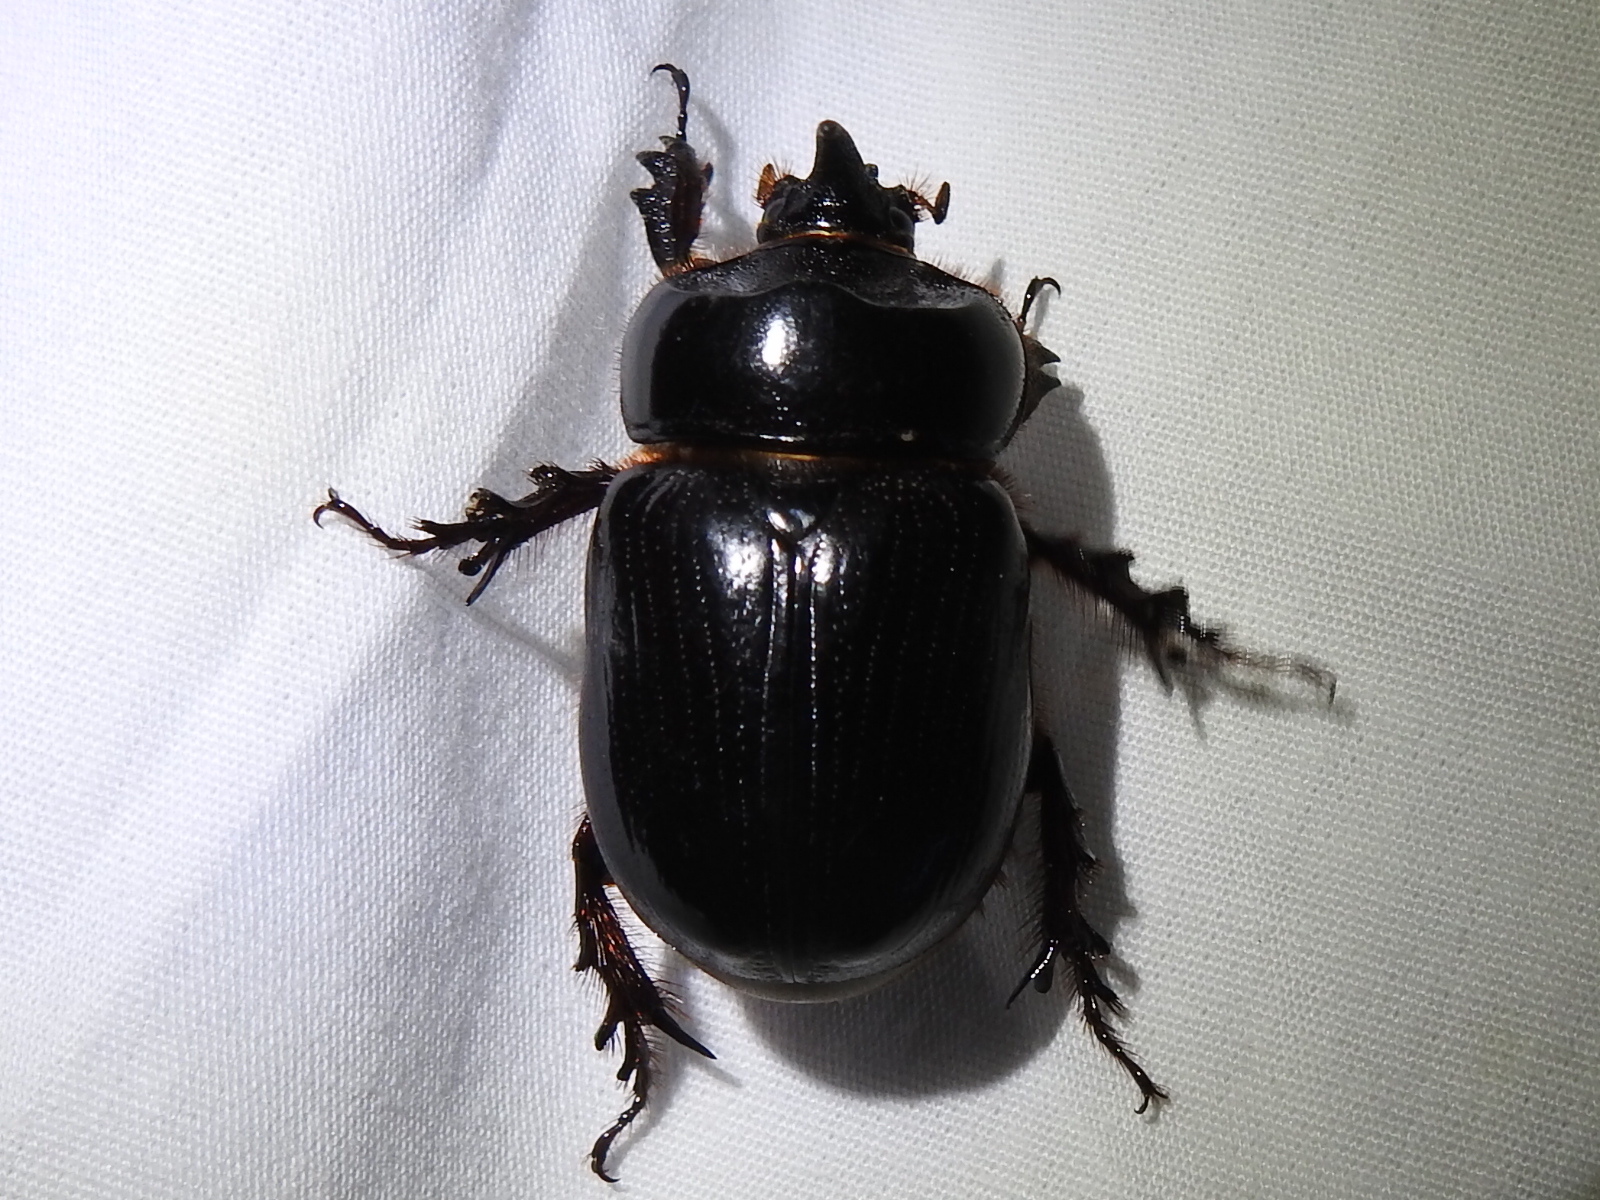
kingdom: Animalia
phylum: Arthropoda
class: Insecta
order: Coleoptera
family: Scarabaeidae
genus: Xyloryctes
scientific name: Xyloryctes thestalus
